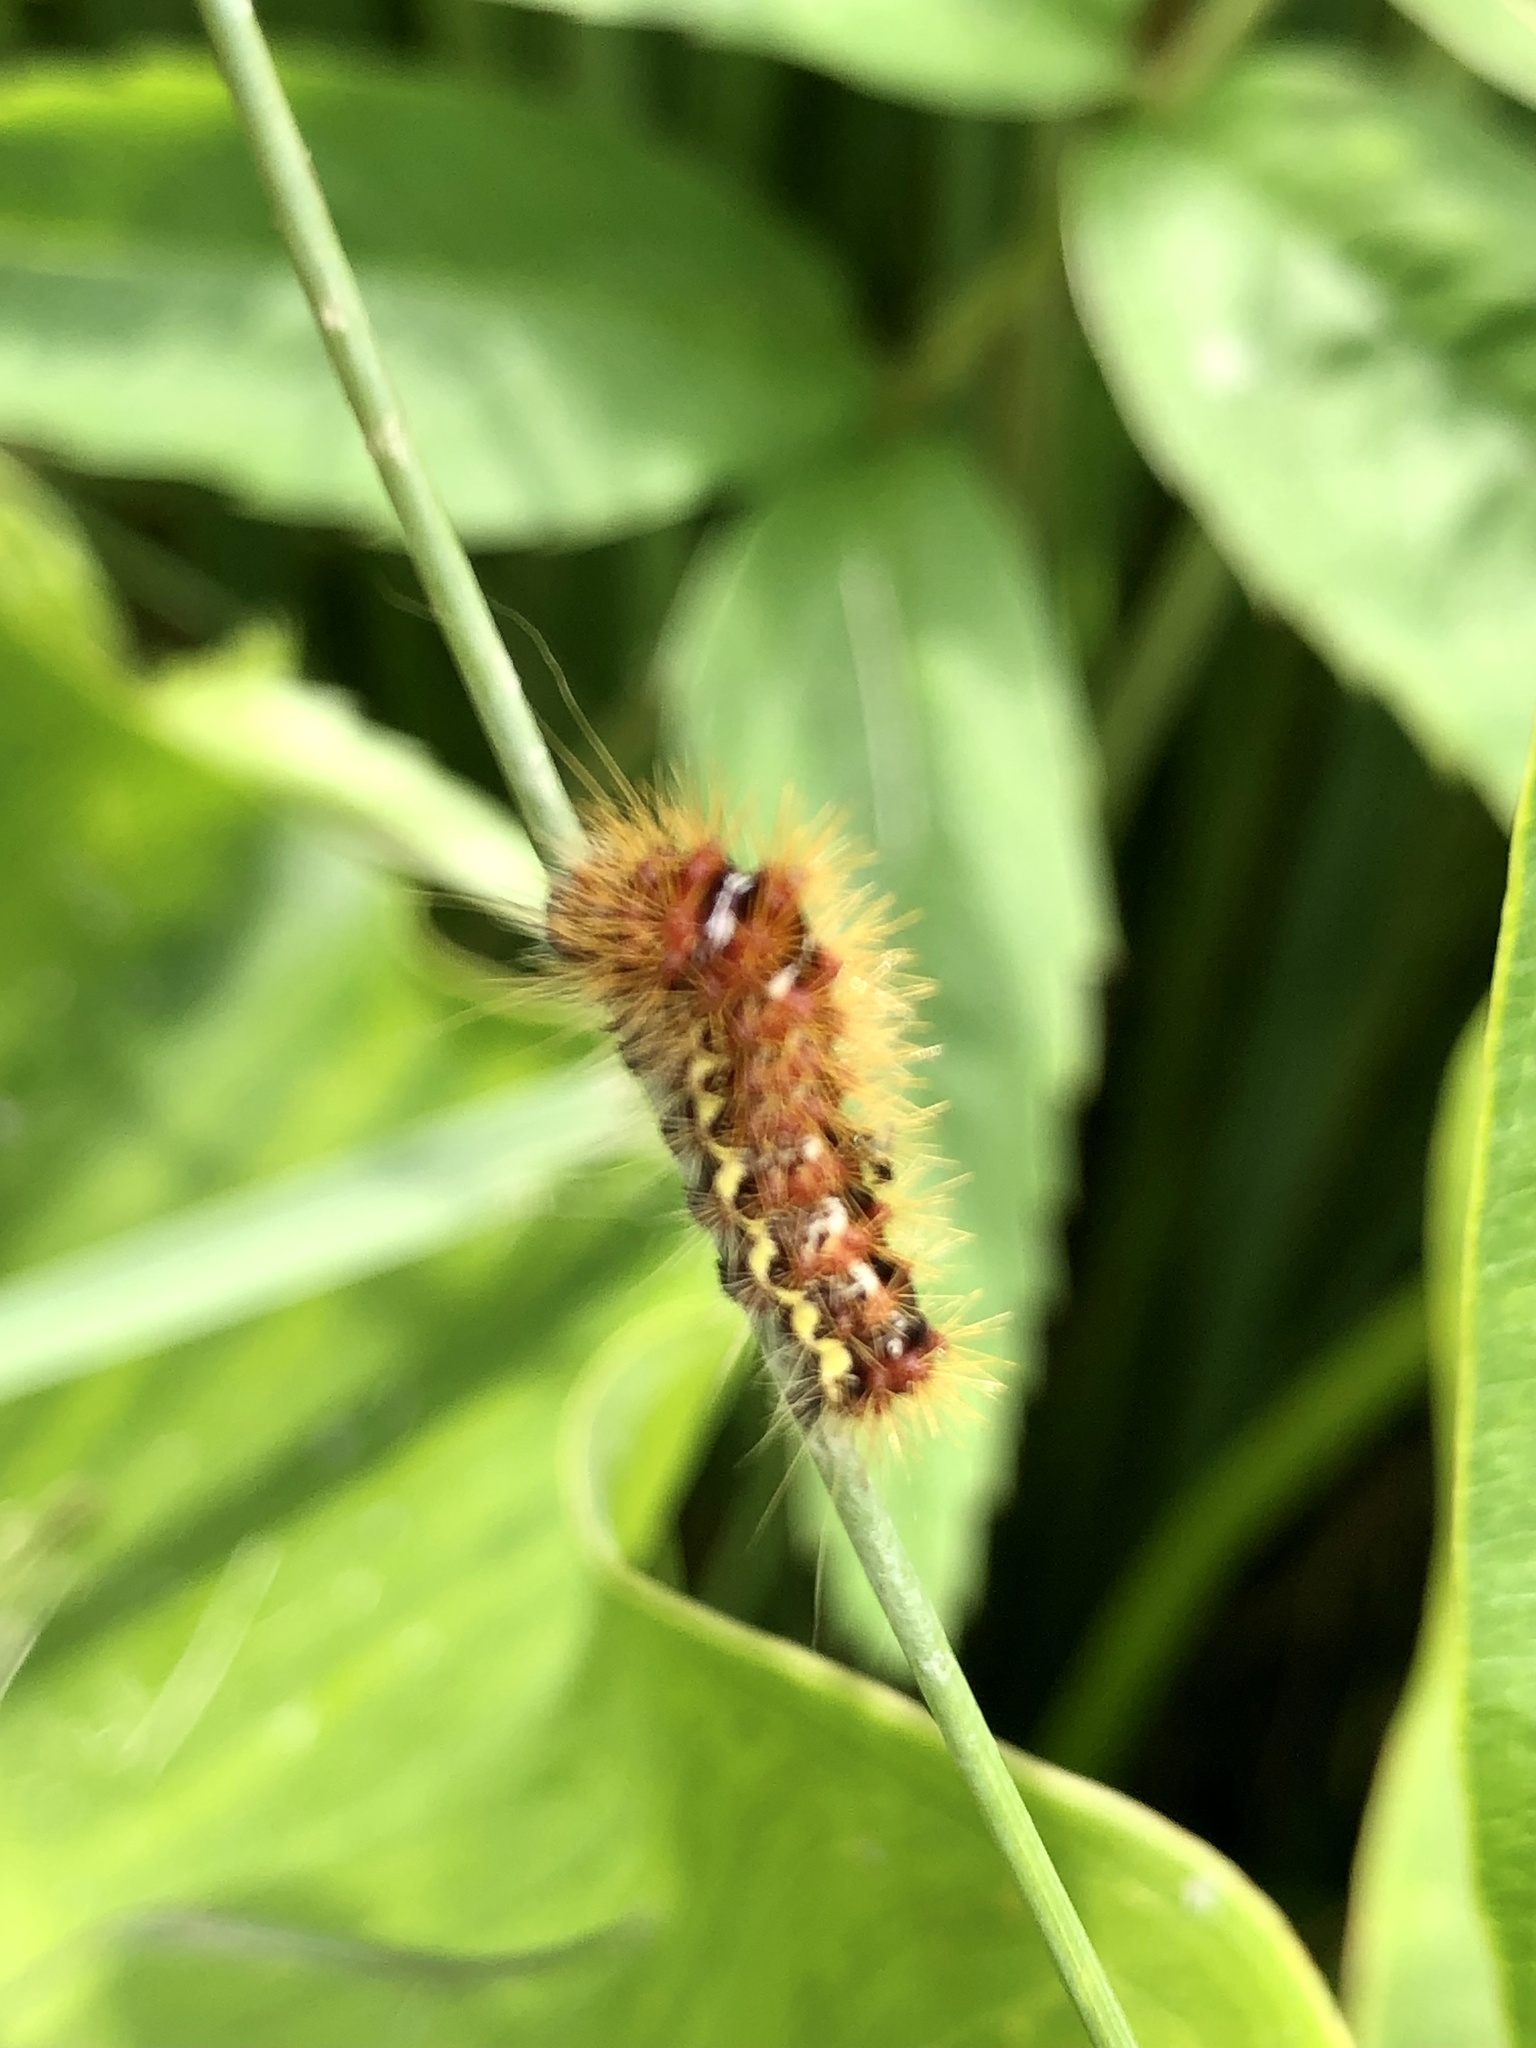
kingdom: Animalia
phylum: Arthropoda
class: Insecta
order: Lepidoptera
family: Noctuidae
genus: Acronicta
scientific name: Acronicta oblinita
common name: Smeared dagger
